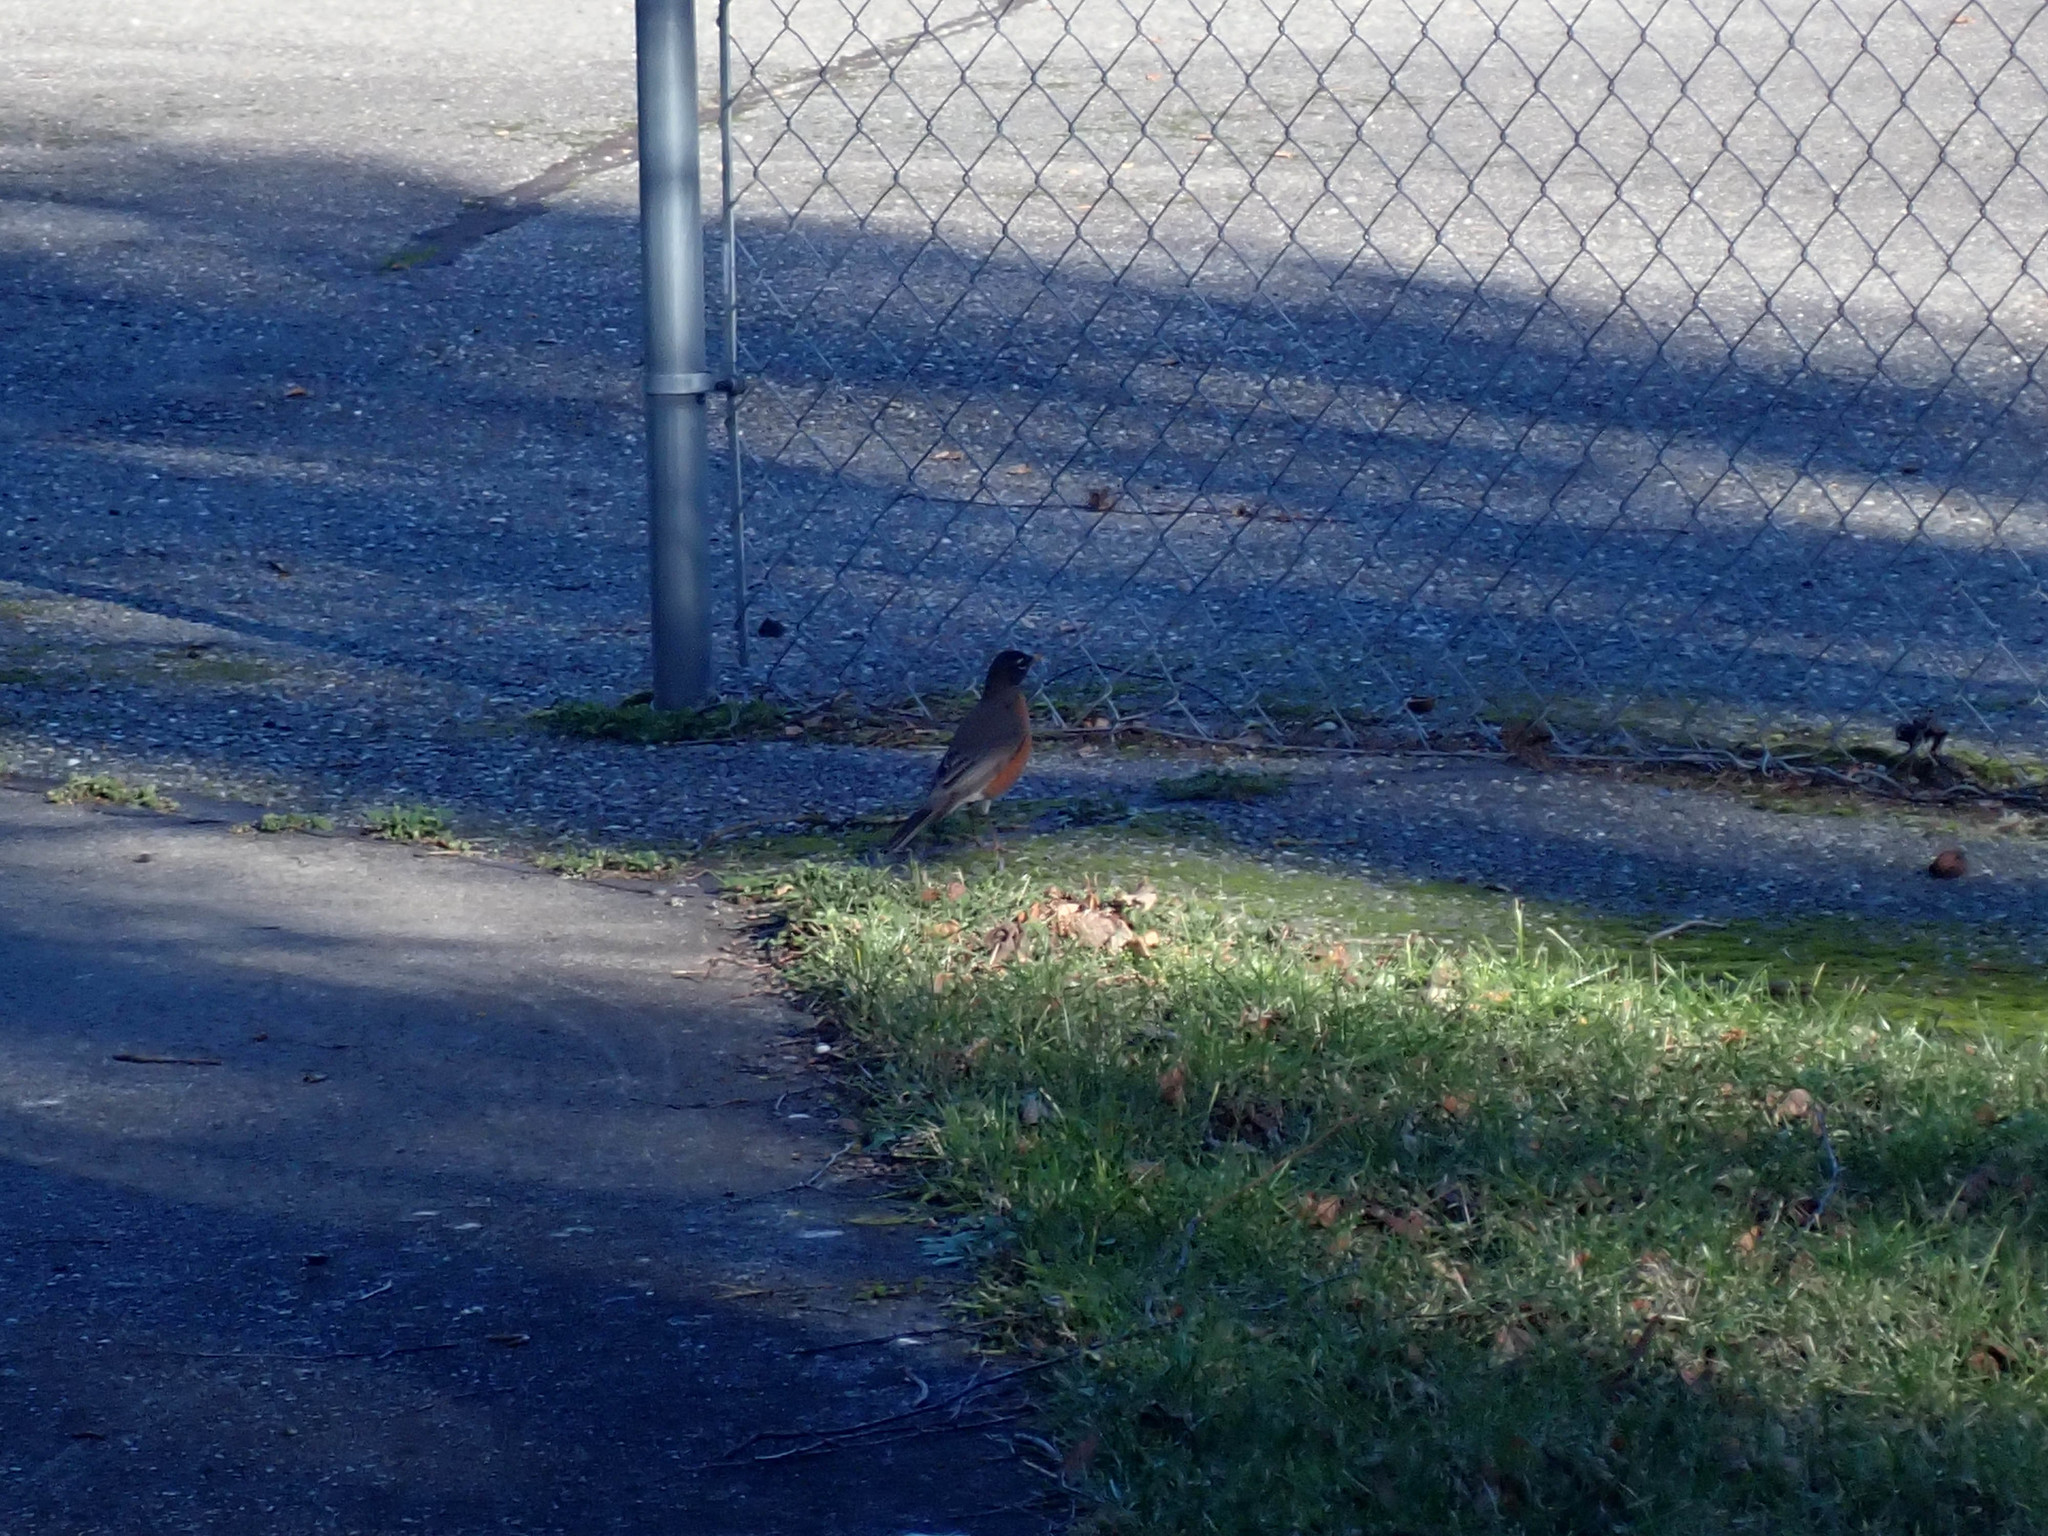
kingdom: Animalia
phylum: Chordata
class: Aves
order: Passeriformes
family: Turdidae
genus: Turdus
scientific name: Turdus migratorius
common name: American robin
